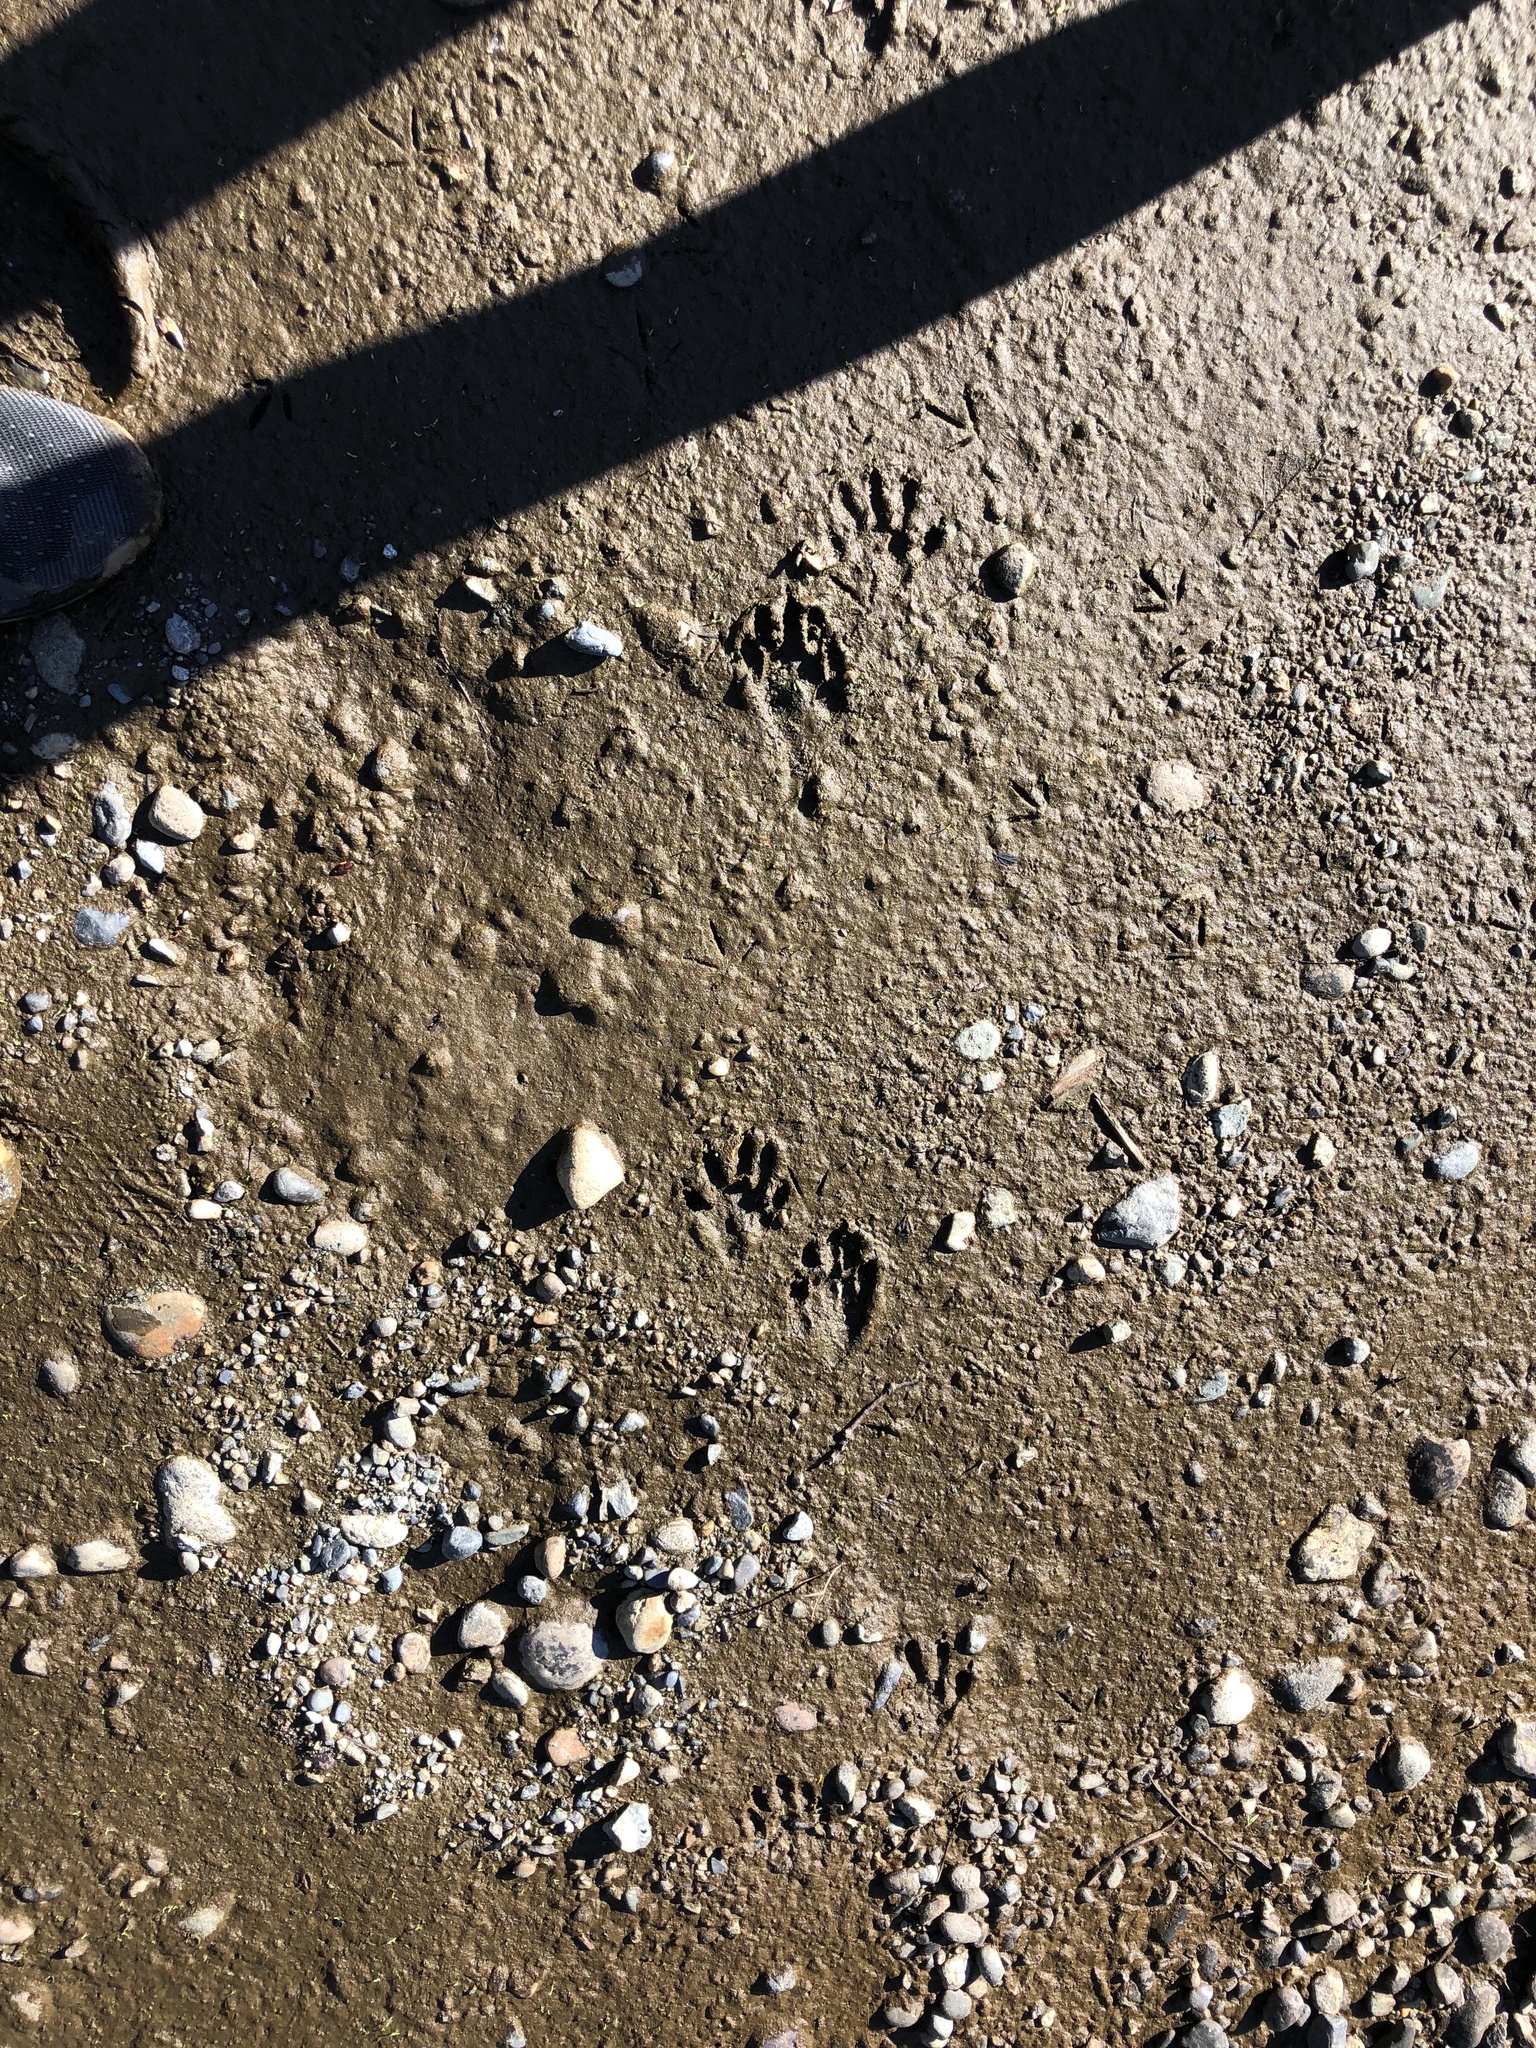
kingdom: Animalia
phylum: Chordata
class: Mammalia
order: Carnivora
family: Procyonidae
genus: Procyon
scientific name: Procyon lotor
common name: Raccoon
